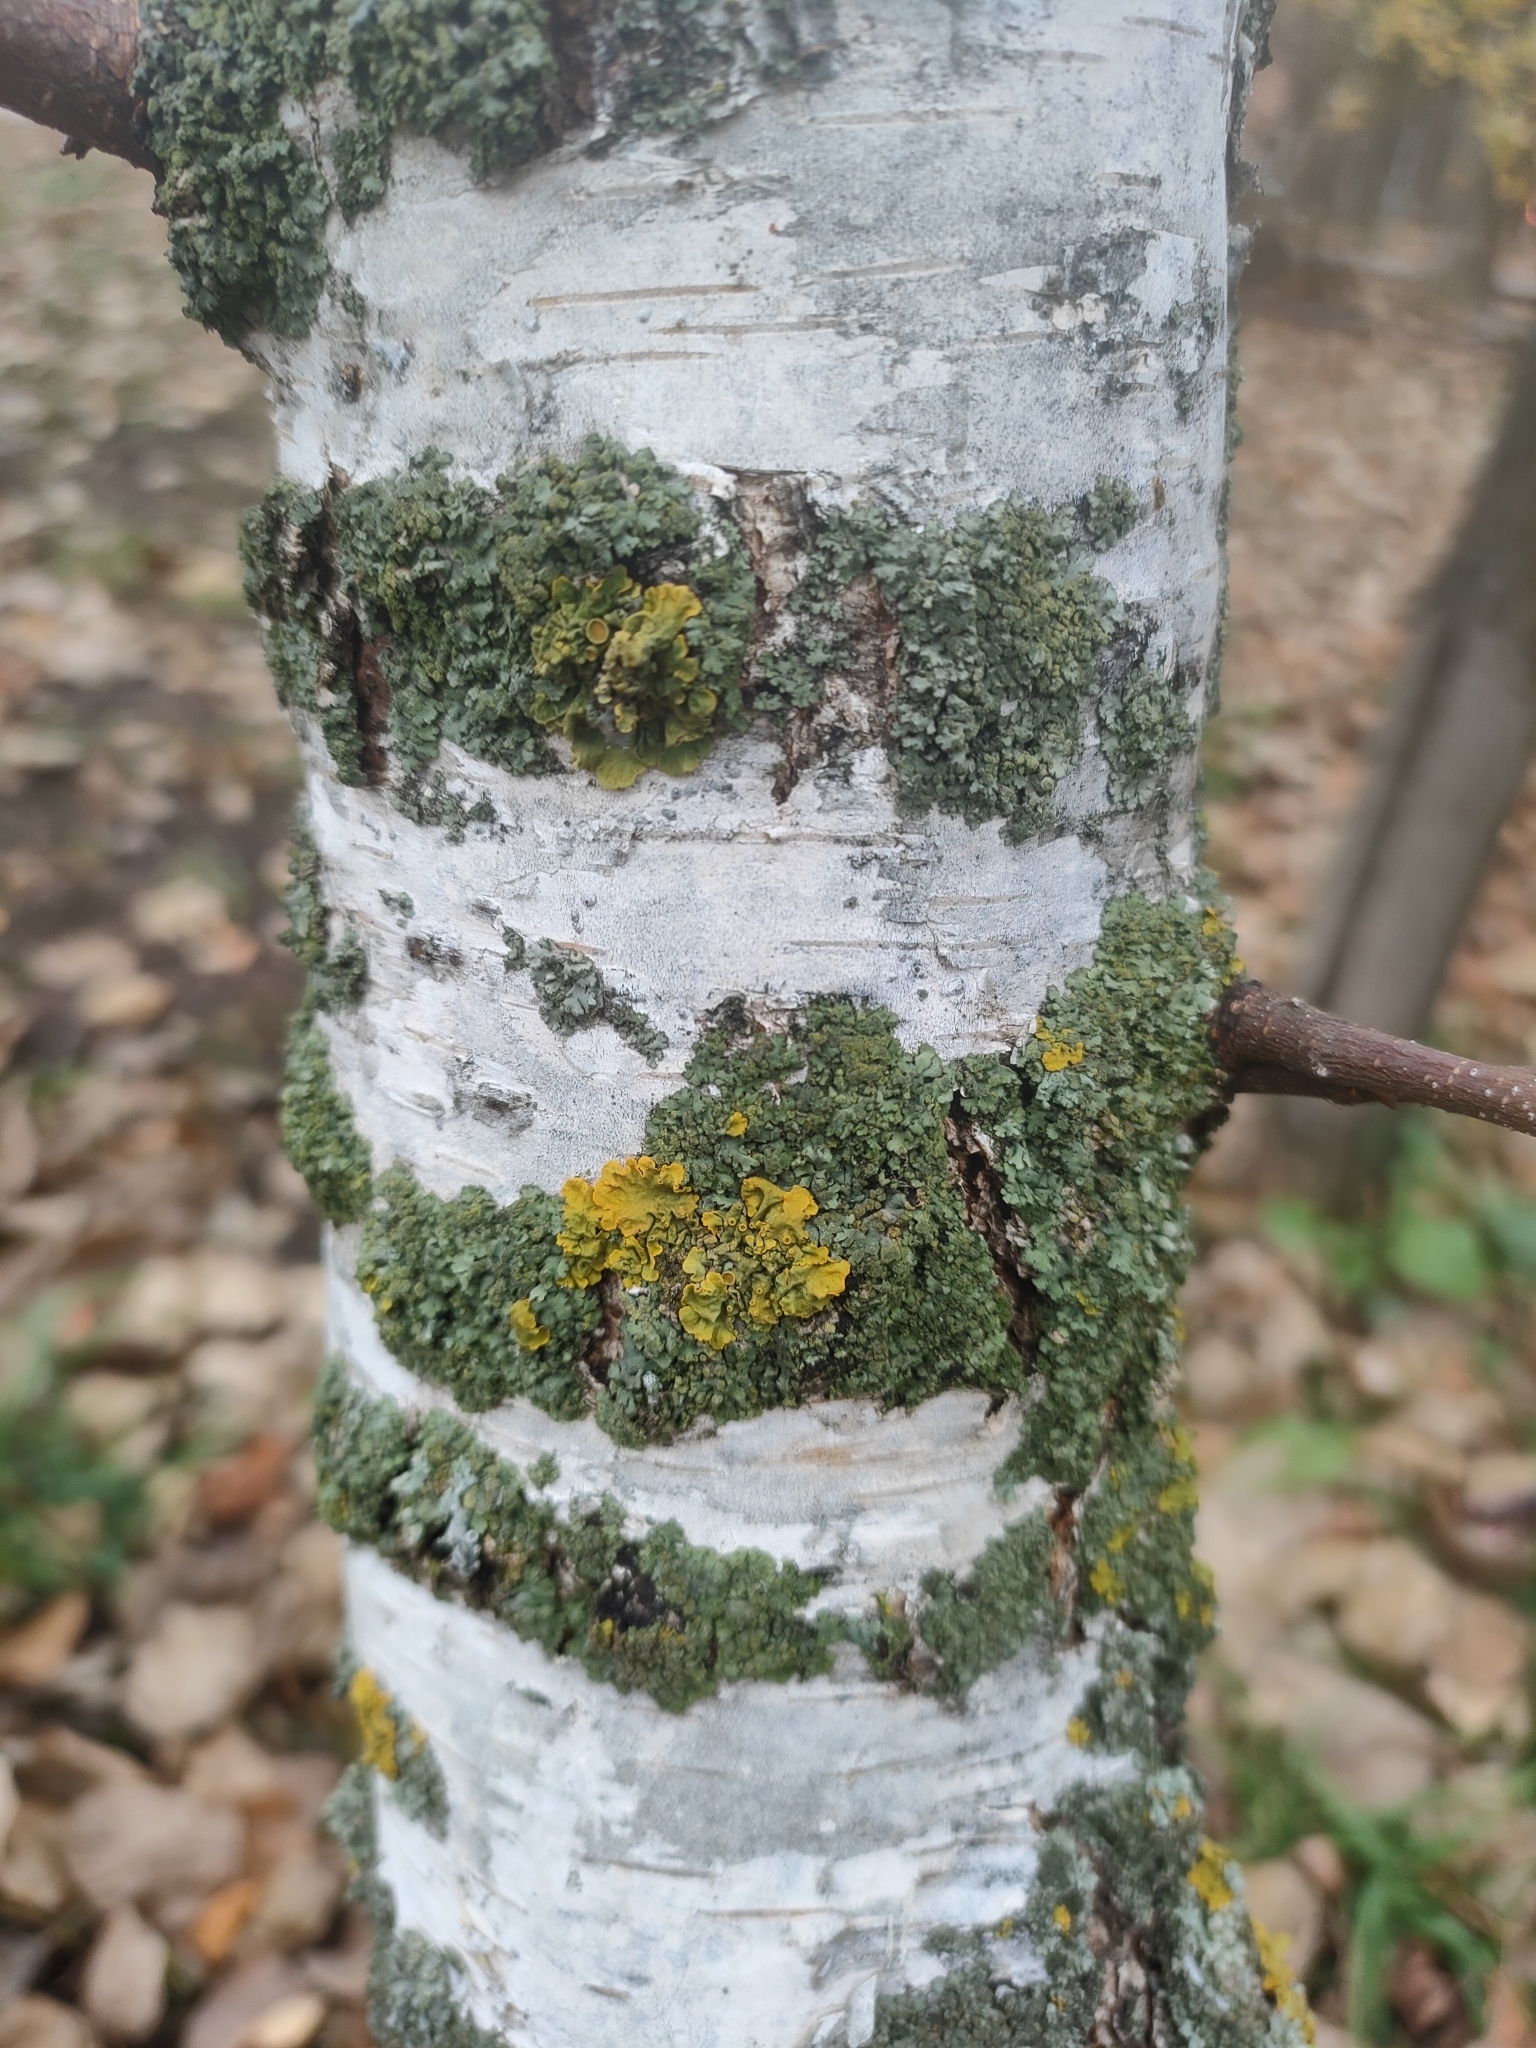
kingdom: Fungi
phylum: Ascomycota
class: Lecanoromycetes
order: Teloschistales
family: Teloschistaceae
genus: Xanthoria
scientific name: Xanthoria parietina
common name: Common orange lichen
